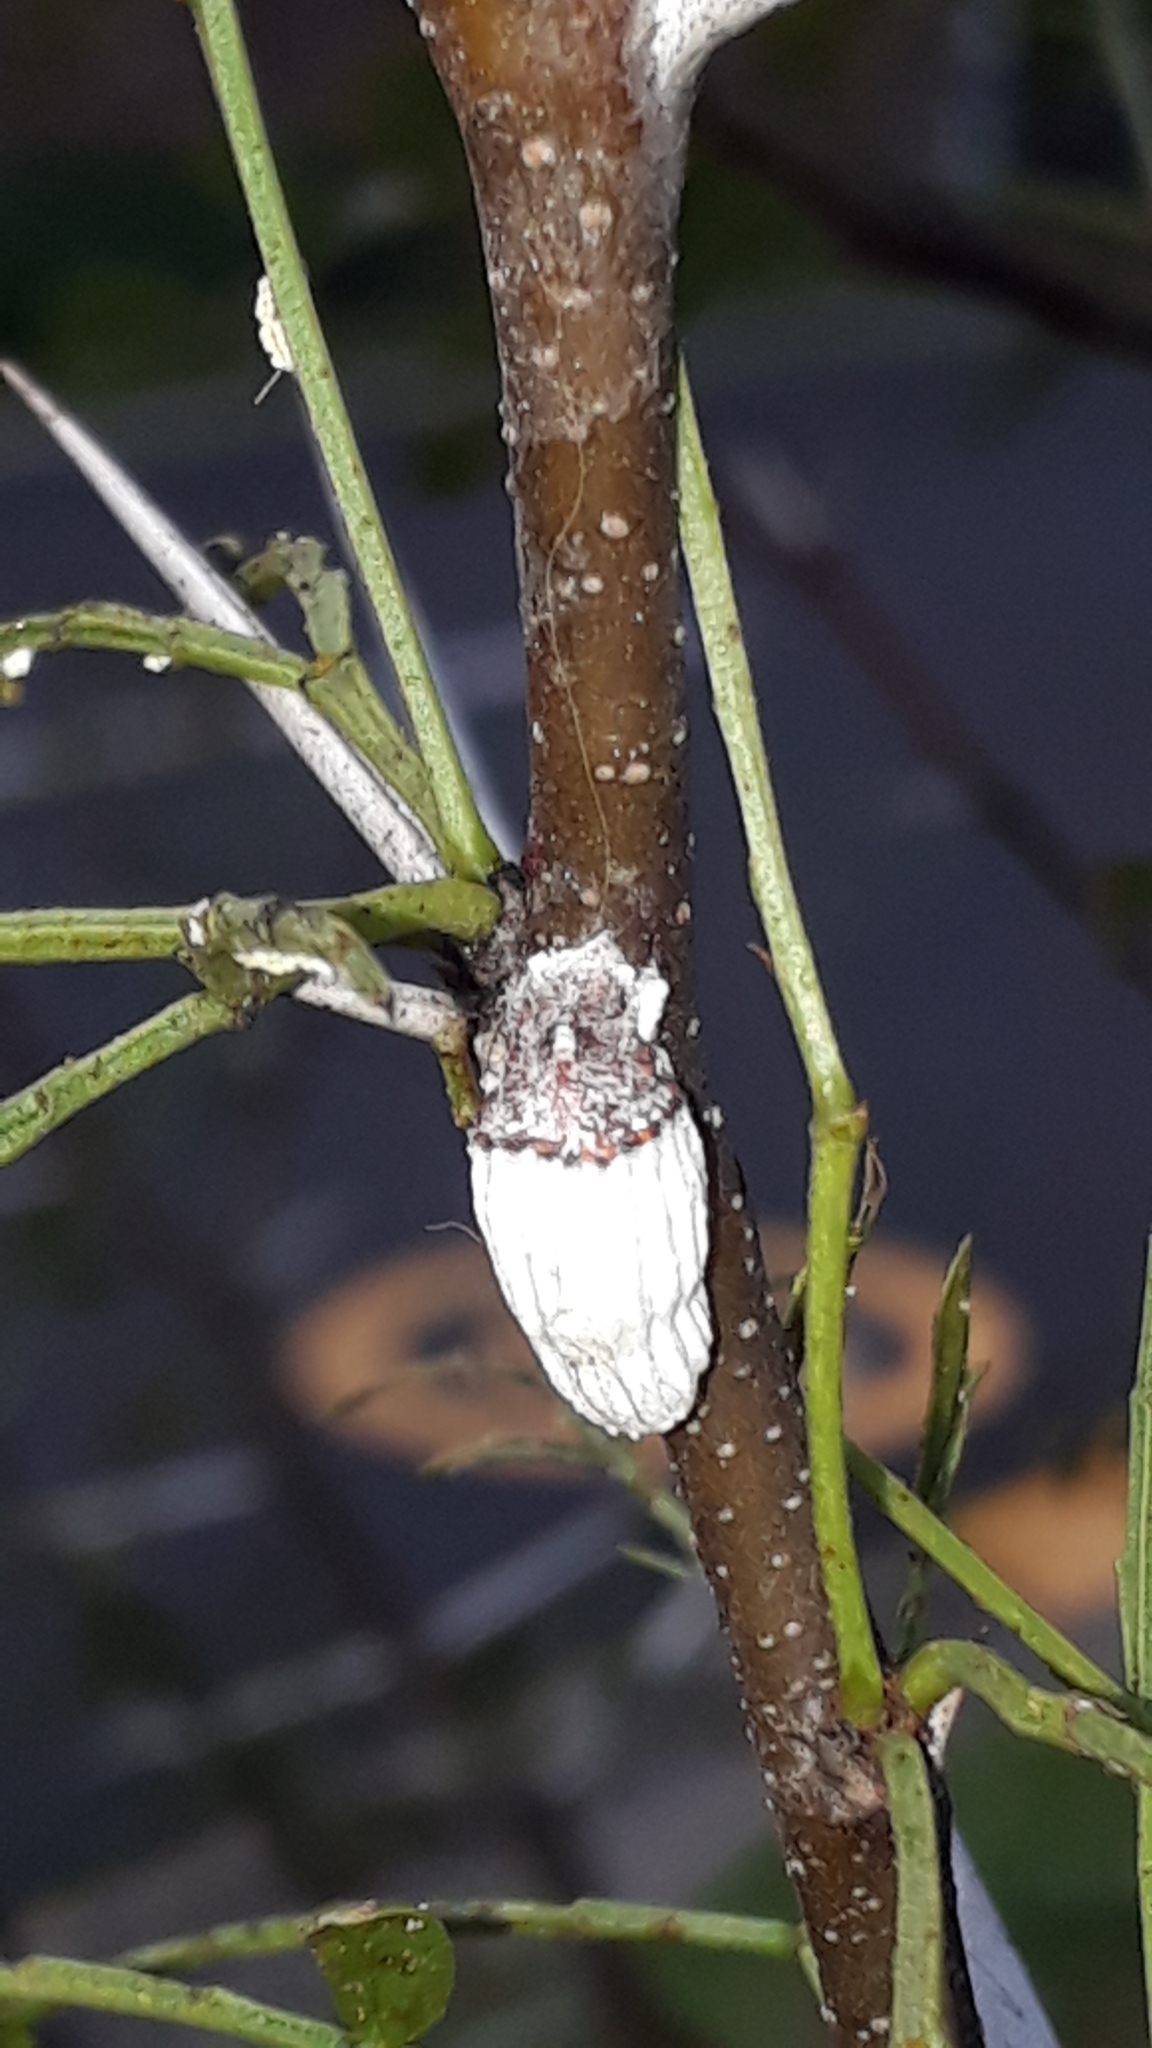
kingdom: Animalia
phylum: Arthropoda
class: Insecta
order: Hemiptera
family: Margarodidae
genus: Icerya
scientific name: Icerya purchasi
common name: Cottony cushion scale
